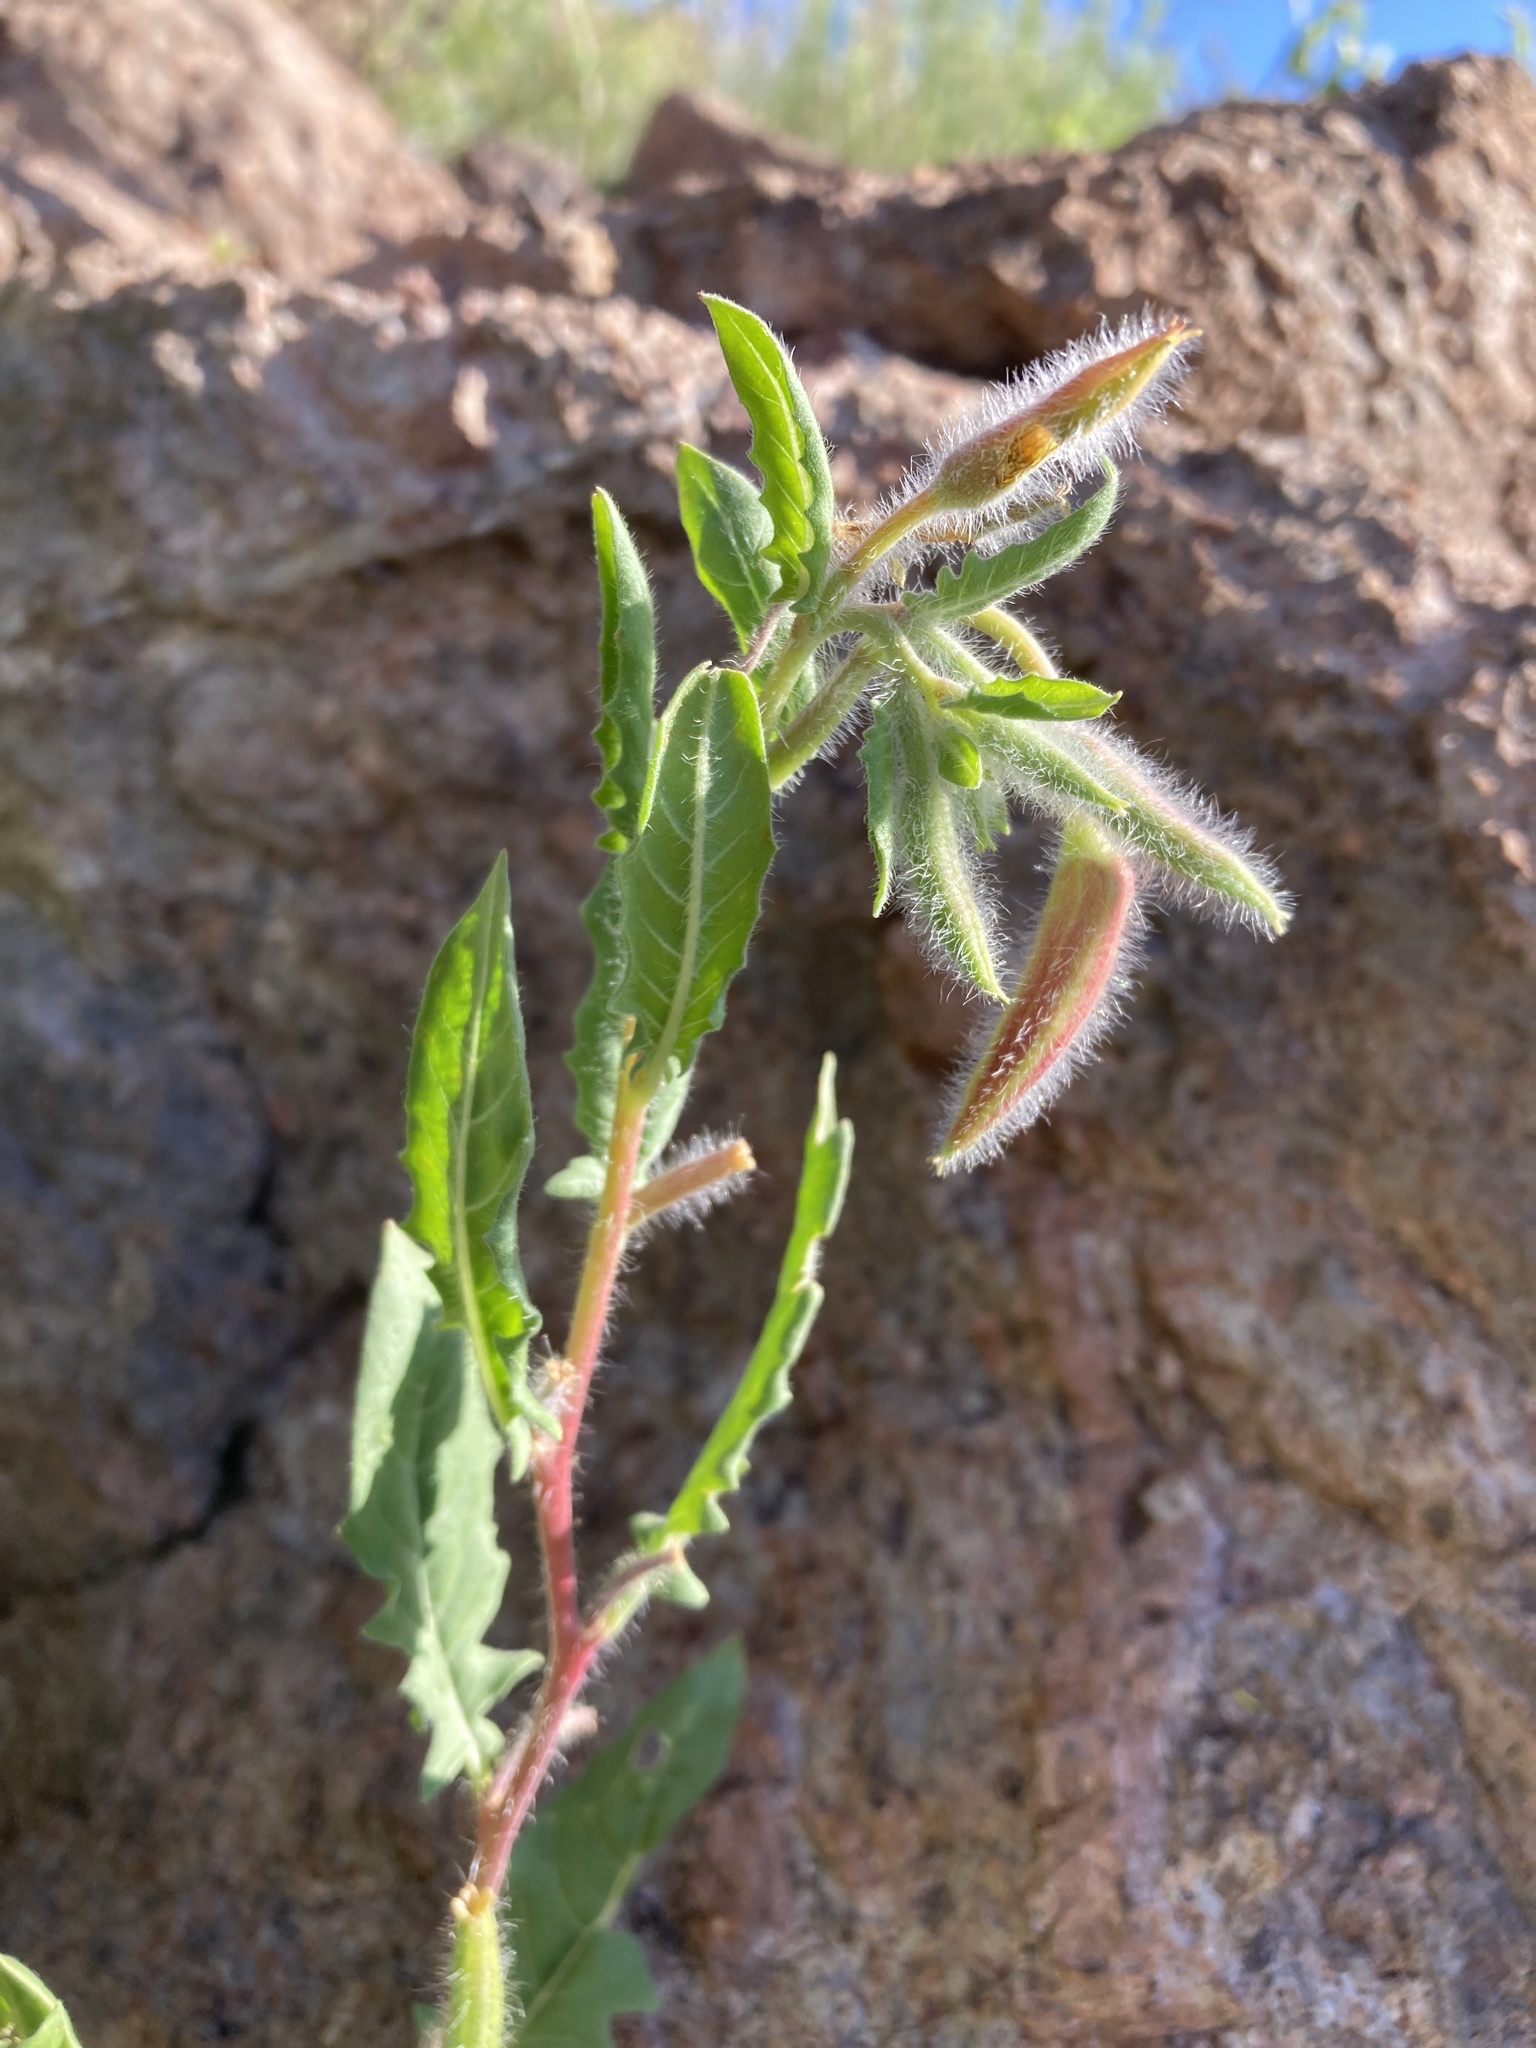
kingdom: Plantae
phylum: Tracheophyta
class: Magnoliopsida
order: Myrtales
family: Onagraceae
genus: Oenothera
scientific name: Oenothera neomexicana
